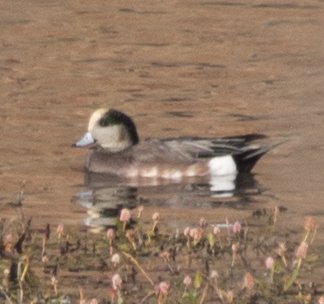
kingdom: Animalia
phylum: Chordata
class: Aves
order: Anseriformes
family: Anatidae
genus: Mareca
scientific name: Mareca americana
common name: American wigeon
